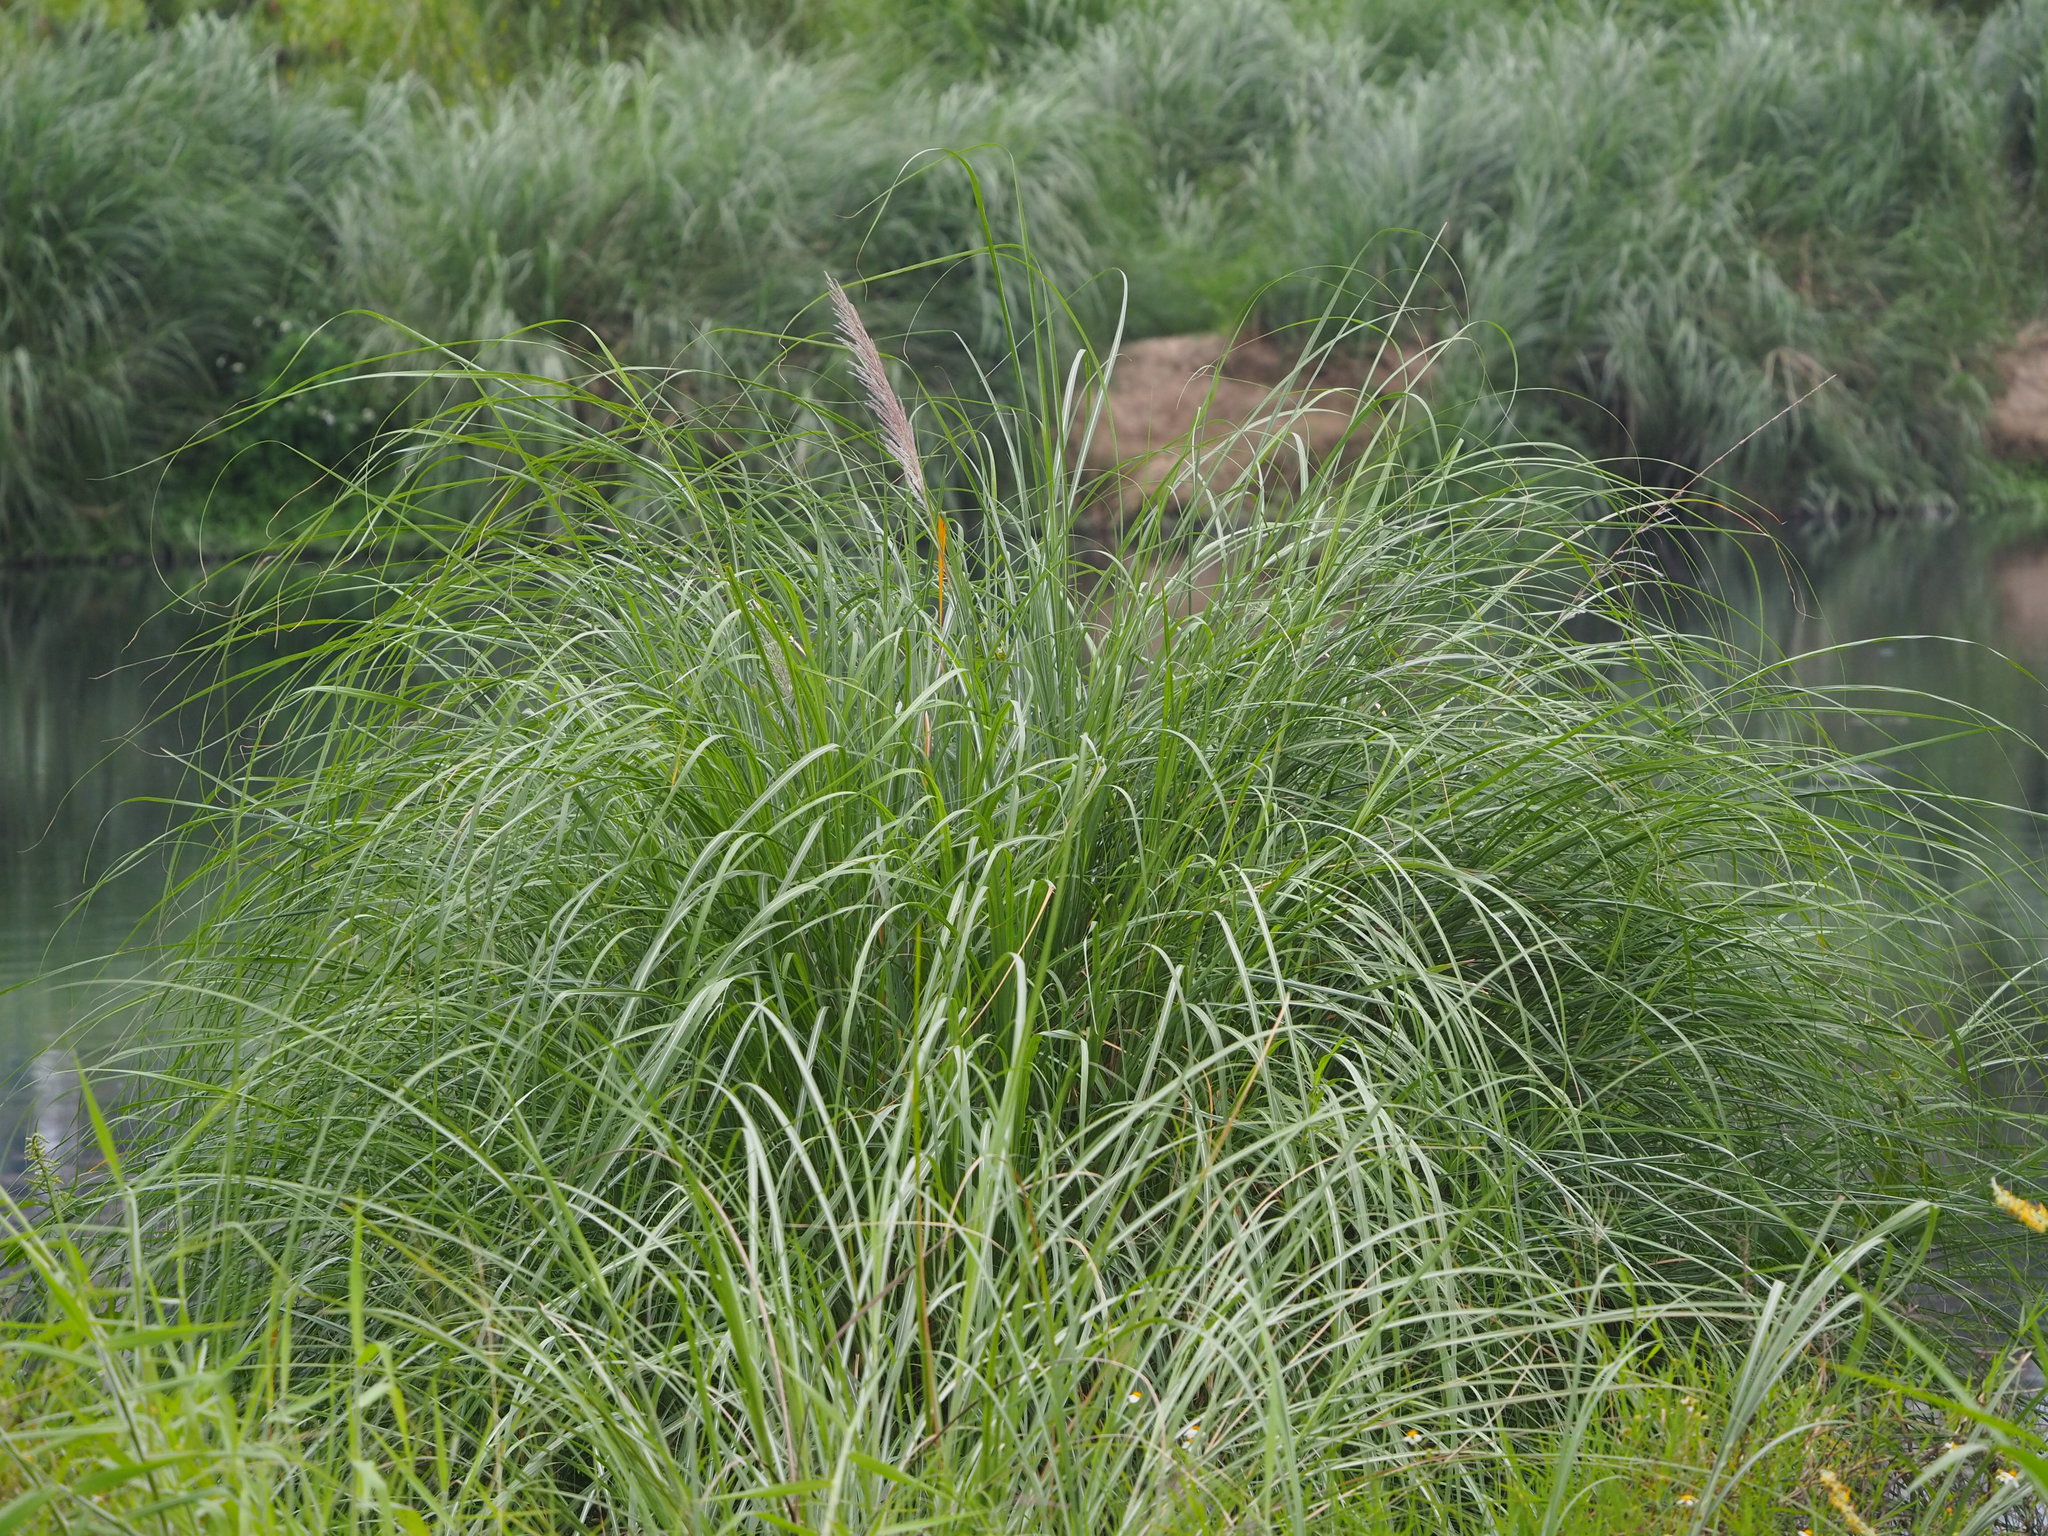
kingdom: Plantae
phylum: Tracheophyta
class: Liliopsida
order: Poales
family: Poaceae
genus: Saccharum
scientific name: Saccharum spontaneum
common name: Wild sugarcane
